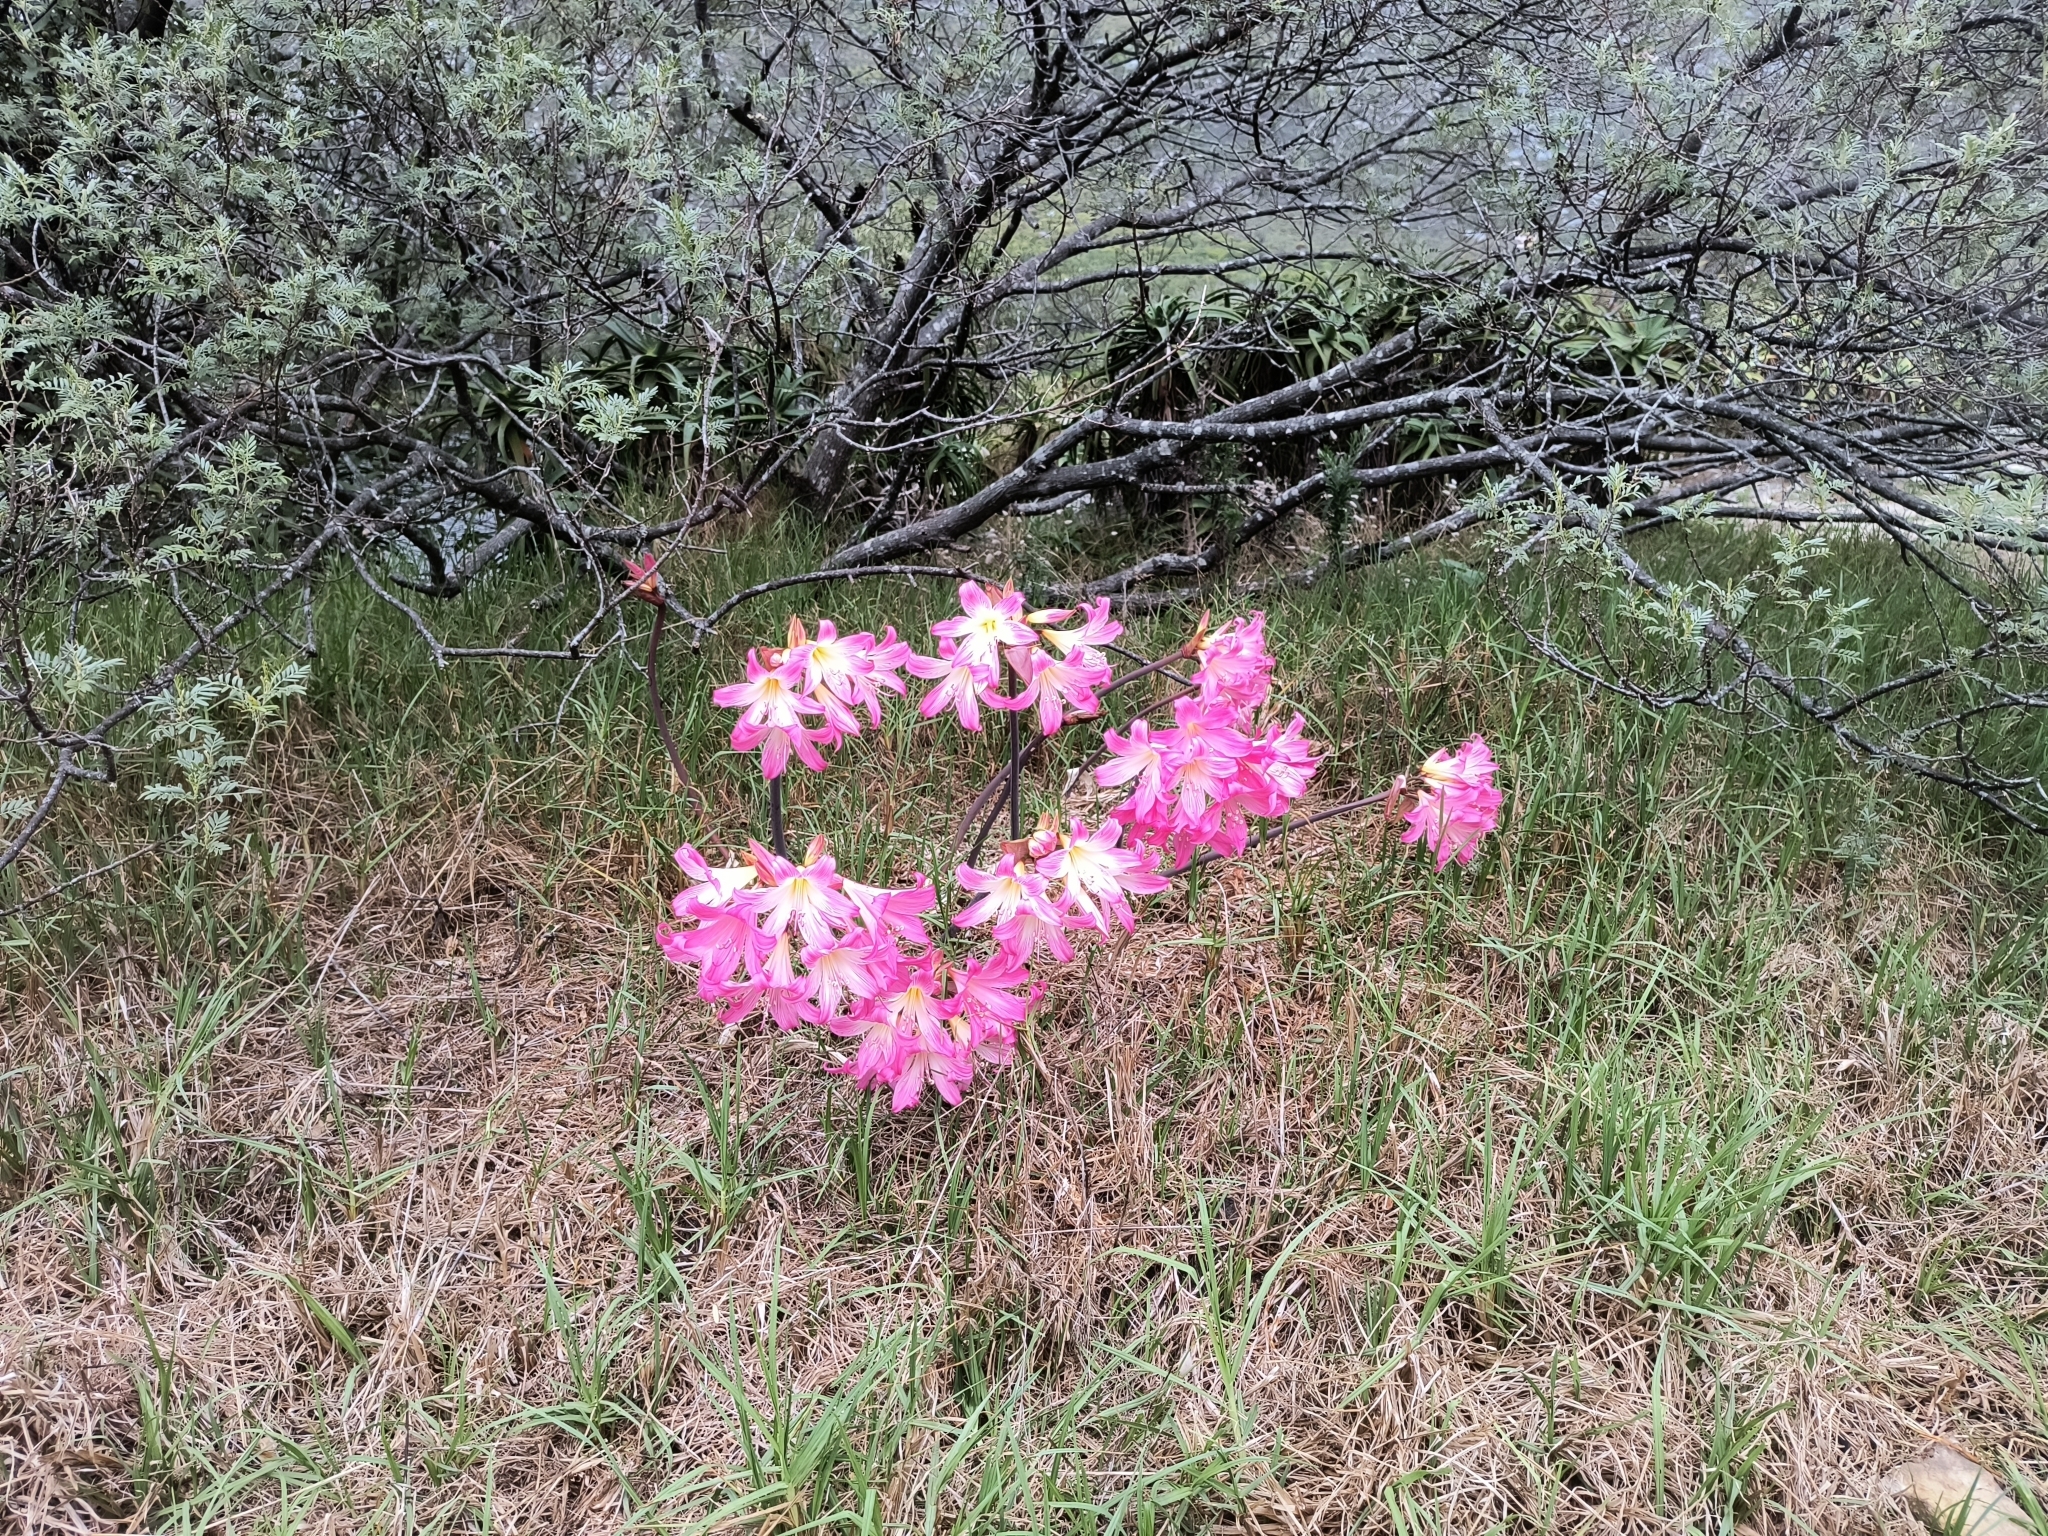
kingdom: Plantae
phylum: Tracheophyta
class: Liliopsida
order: Asparagales
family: Amaryllidaceae
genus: Amaryllis
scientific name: Amaryllis belladonna
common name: Jersey lily
